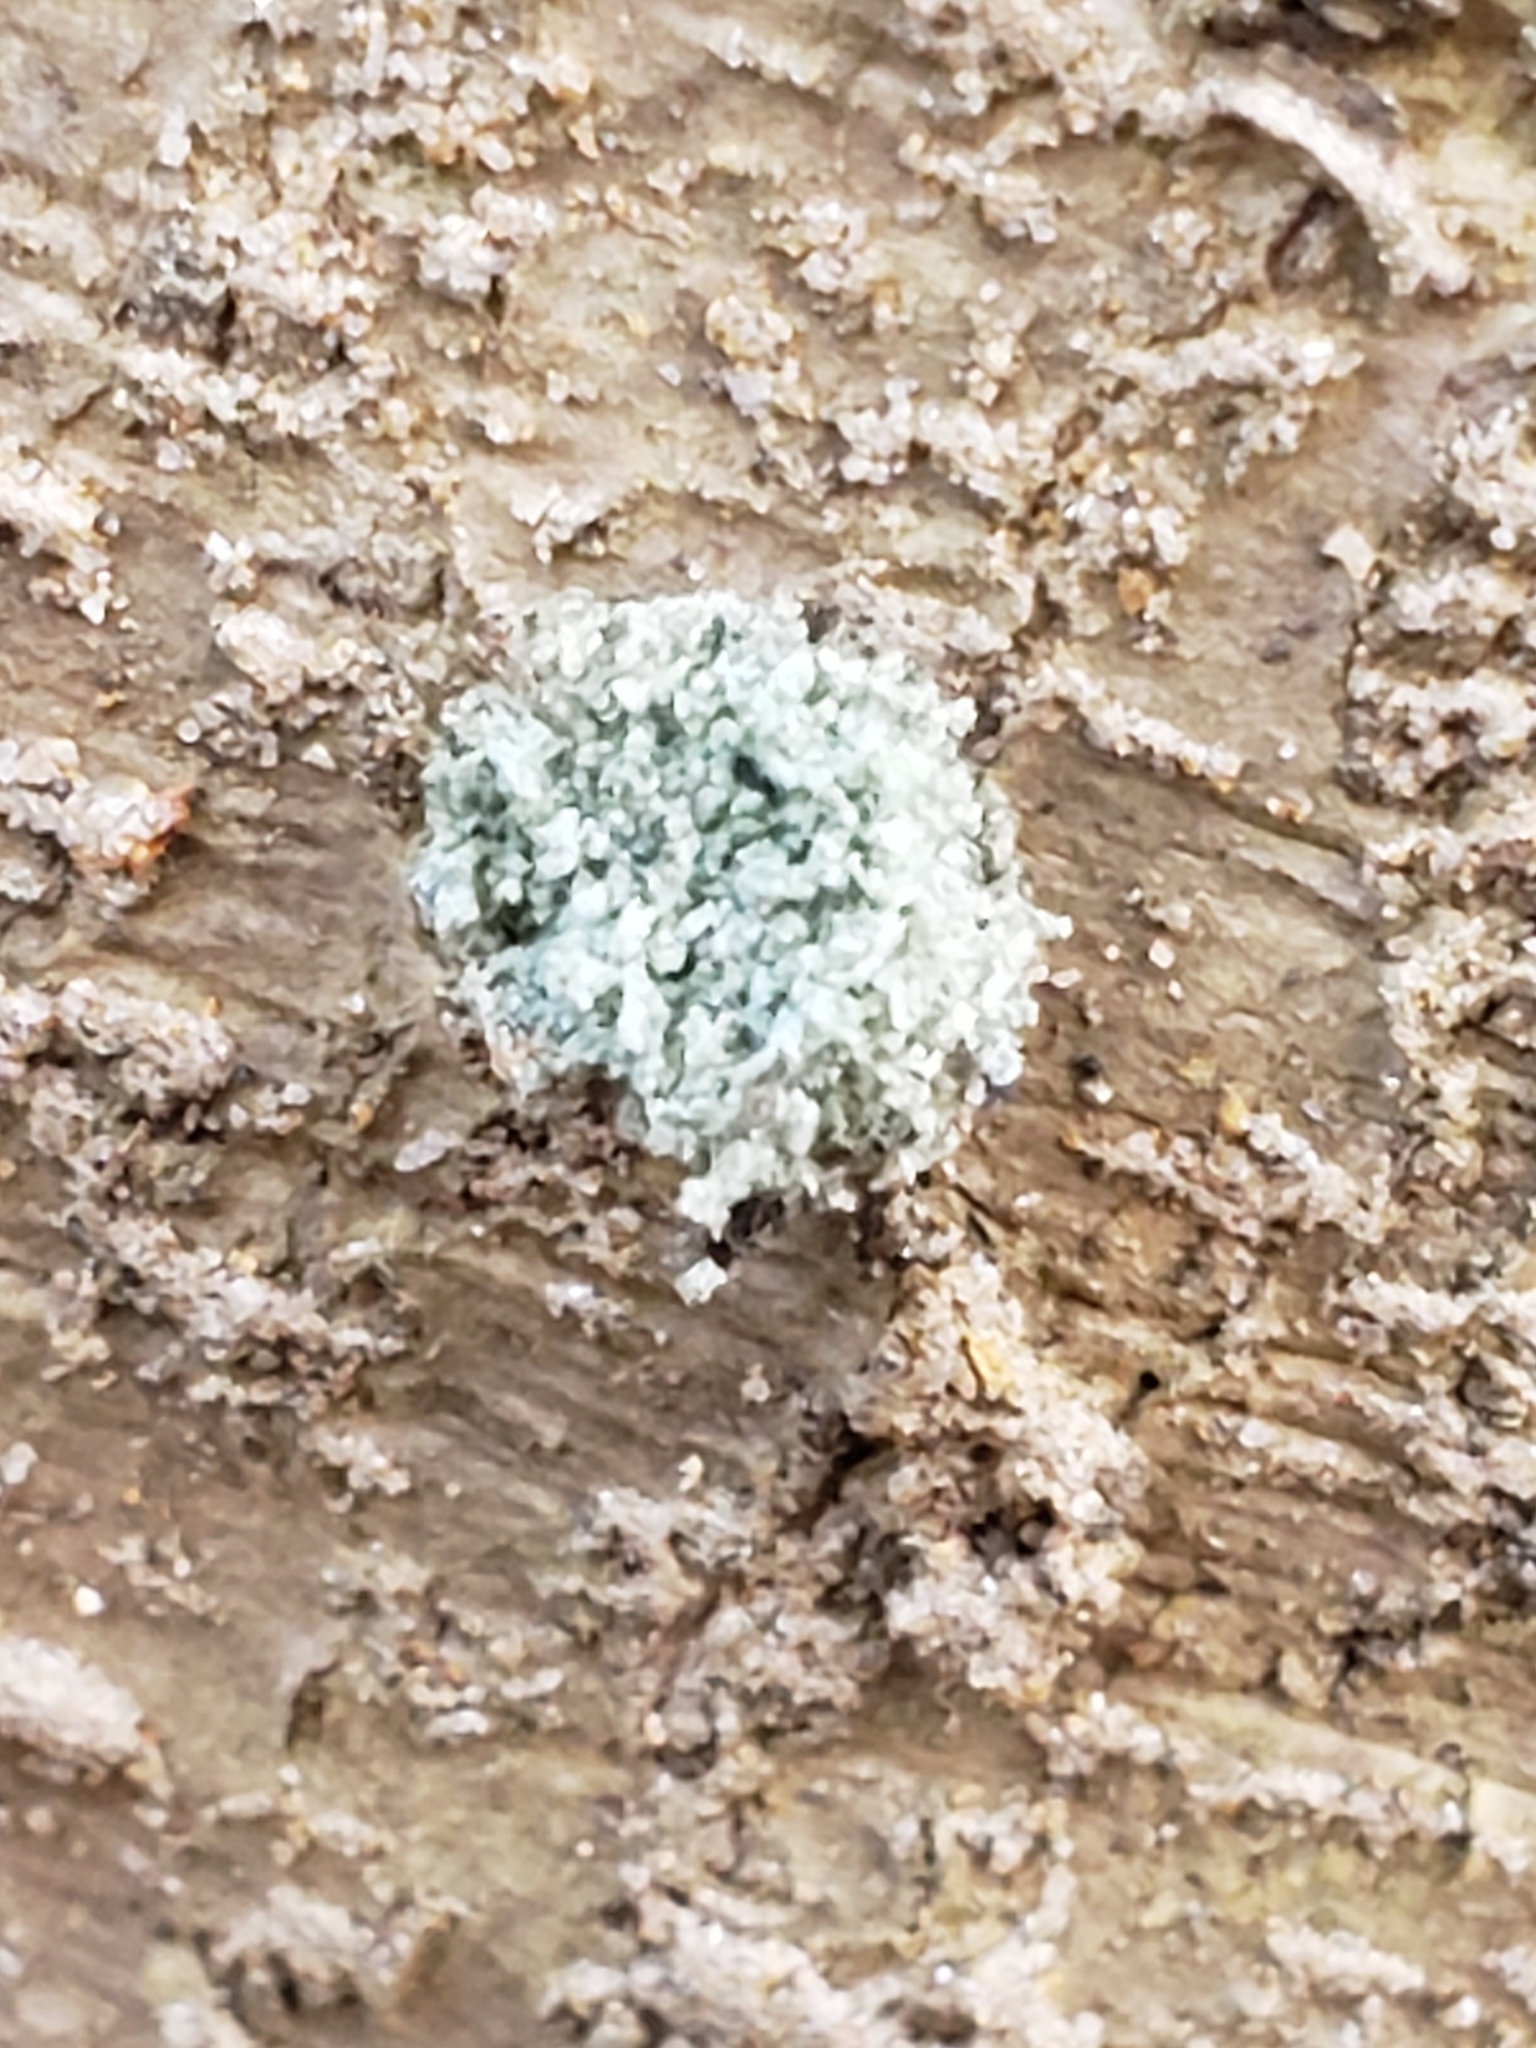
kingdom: Animalia
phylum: Arthropoda
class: Insecta
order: Neuroptera
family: Chrysopidae
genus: Leucochrysa
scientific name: Leucochrysa pavida
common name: Lichen-carrying green lacewing
